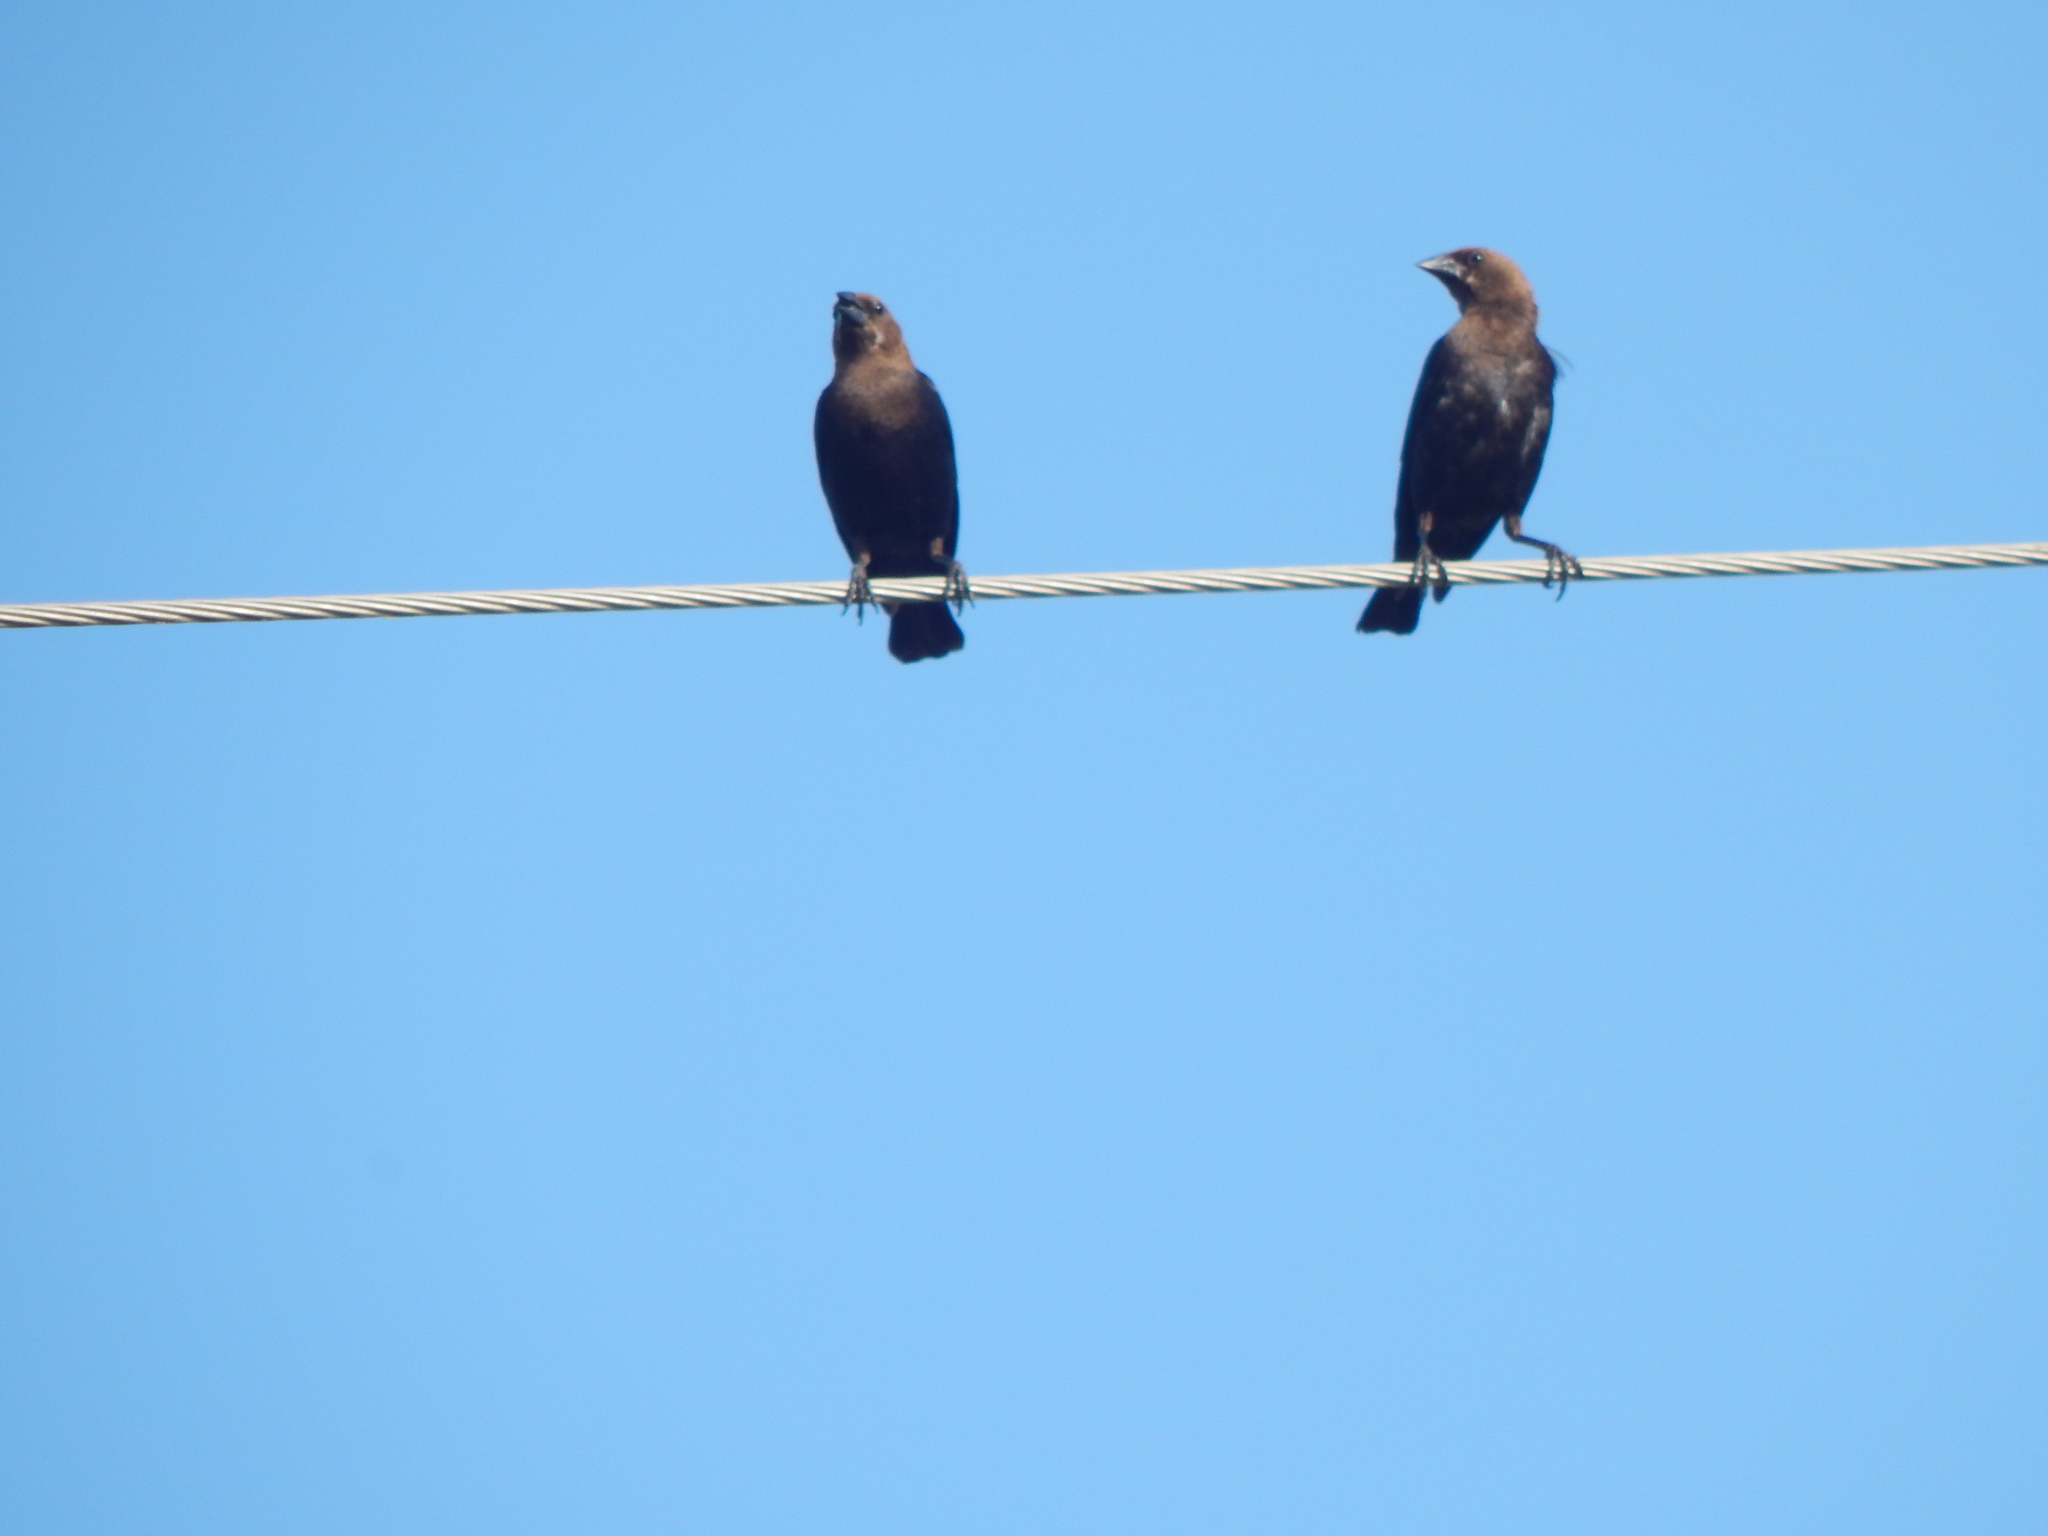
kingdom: Animalia
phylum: Chordata
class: Aves
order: Passeriformes
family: Icteridae
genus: Molothrus
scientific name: Molothrus ater
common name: Brown-headed cowbird
